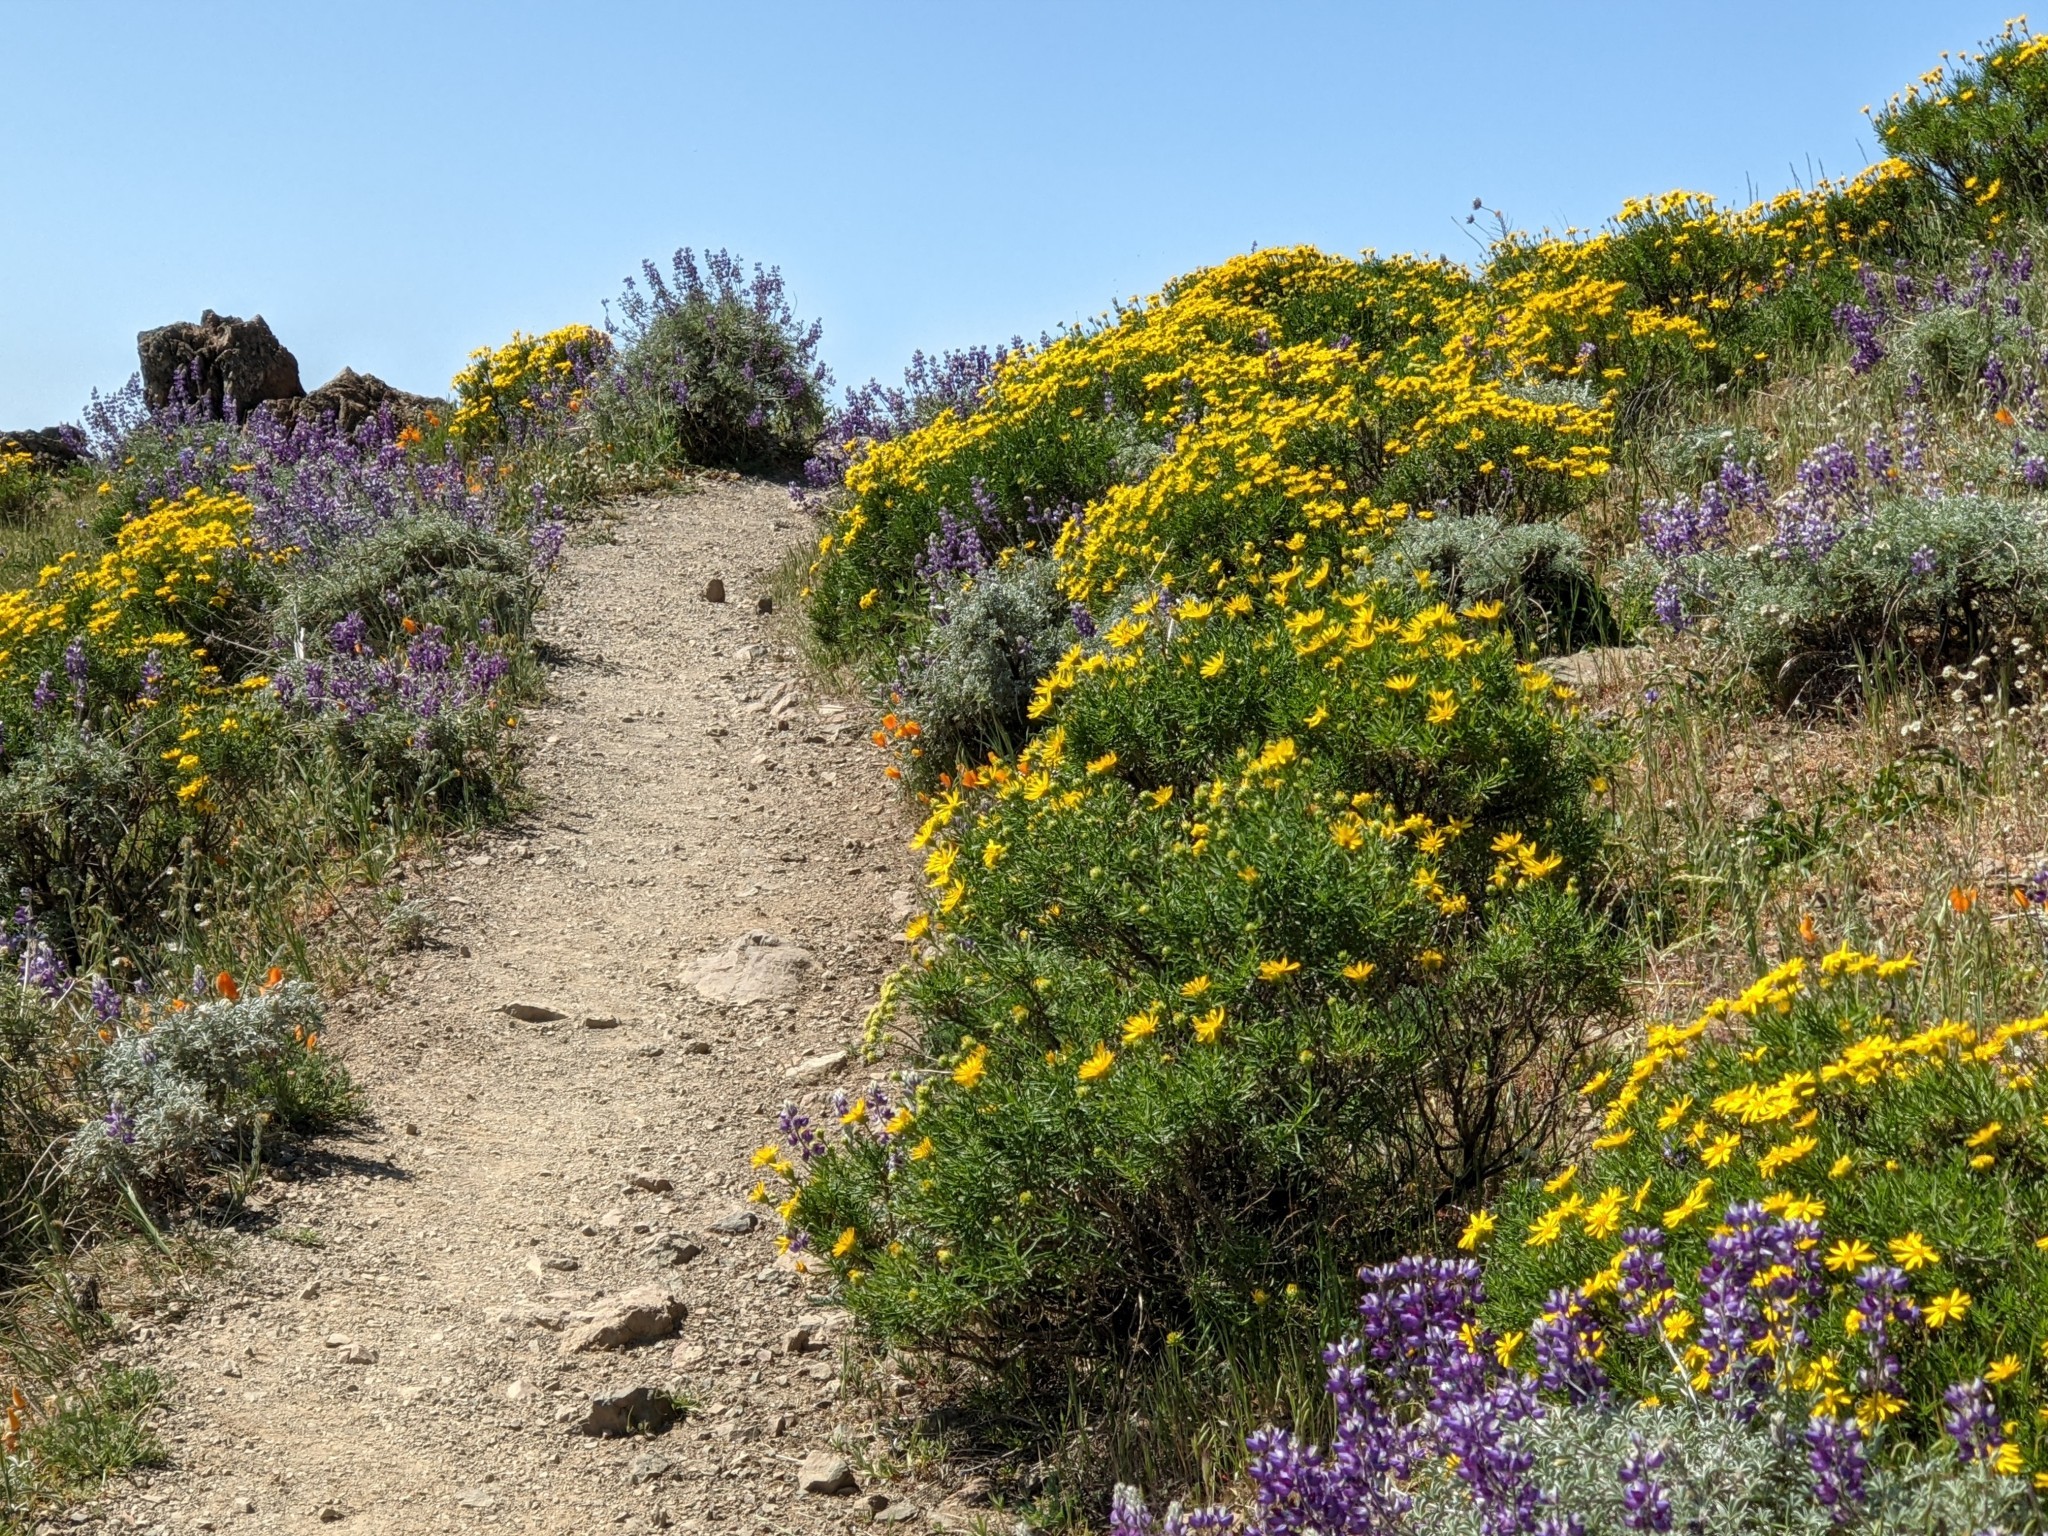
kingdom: Plantae
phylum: Tracheophyta
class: Magnoliopsida
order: Asterales
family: Asteraceae
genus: Ericameria
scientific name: Ericameria linearifolia
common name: Interior goldenbush
